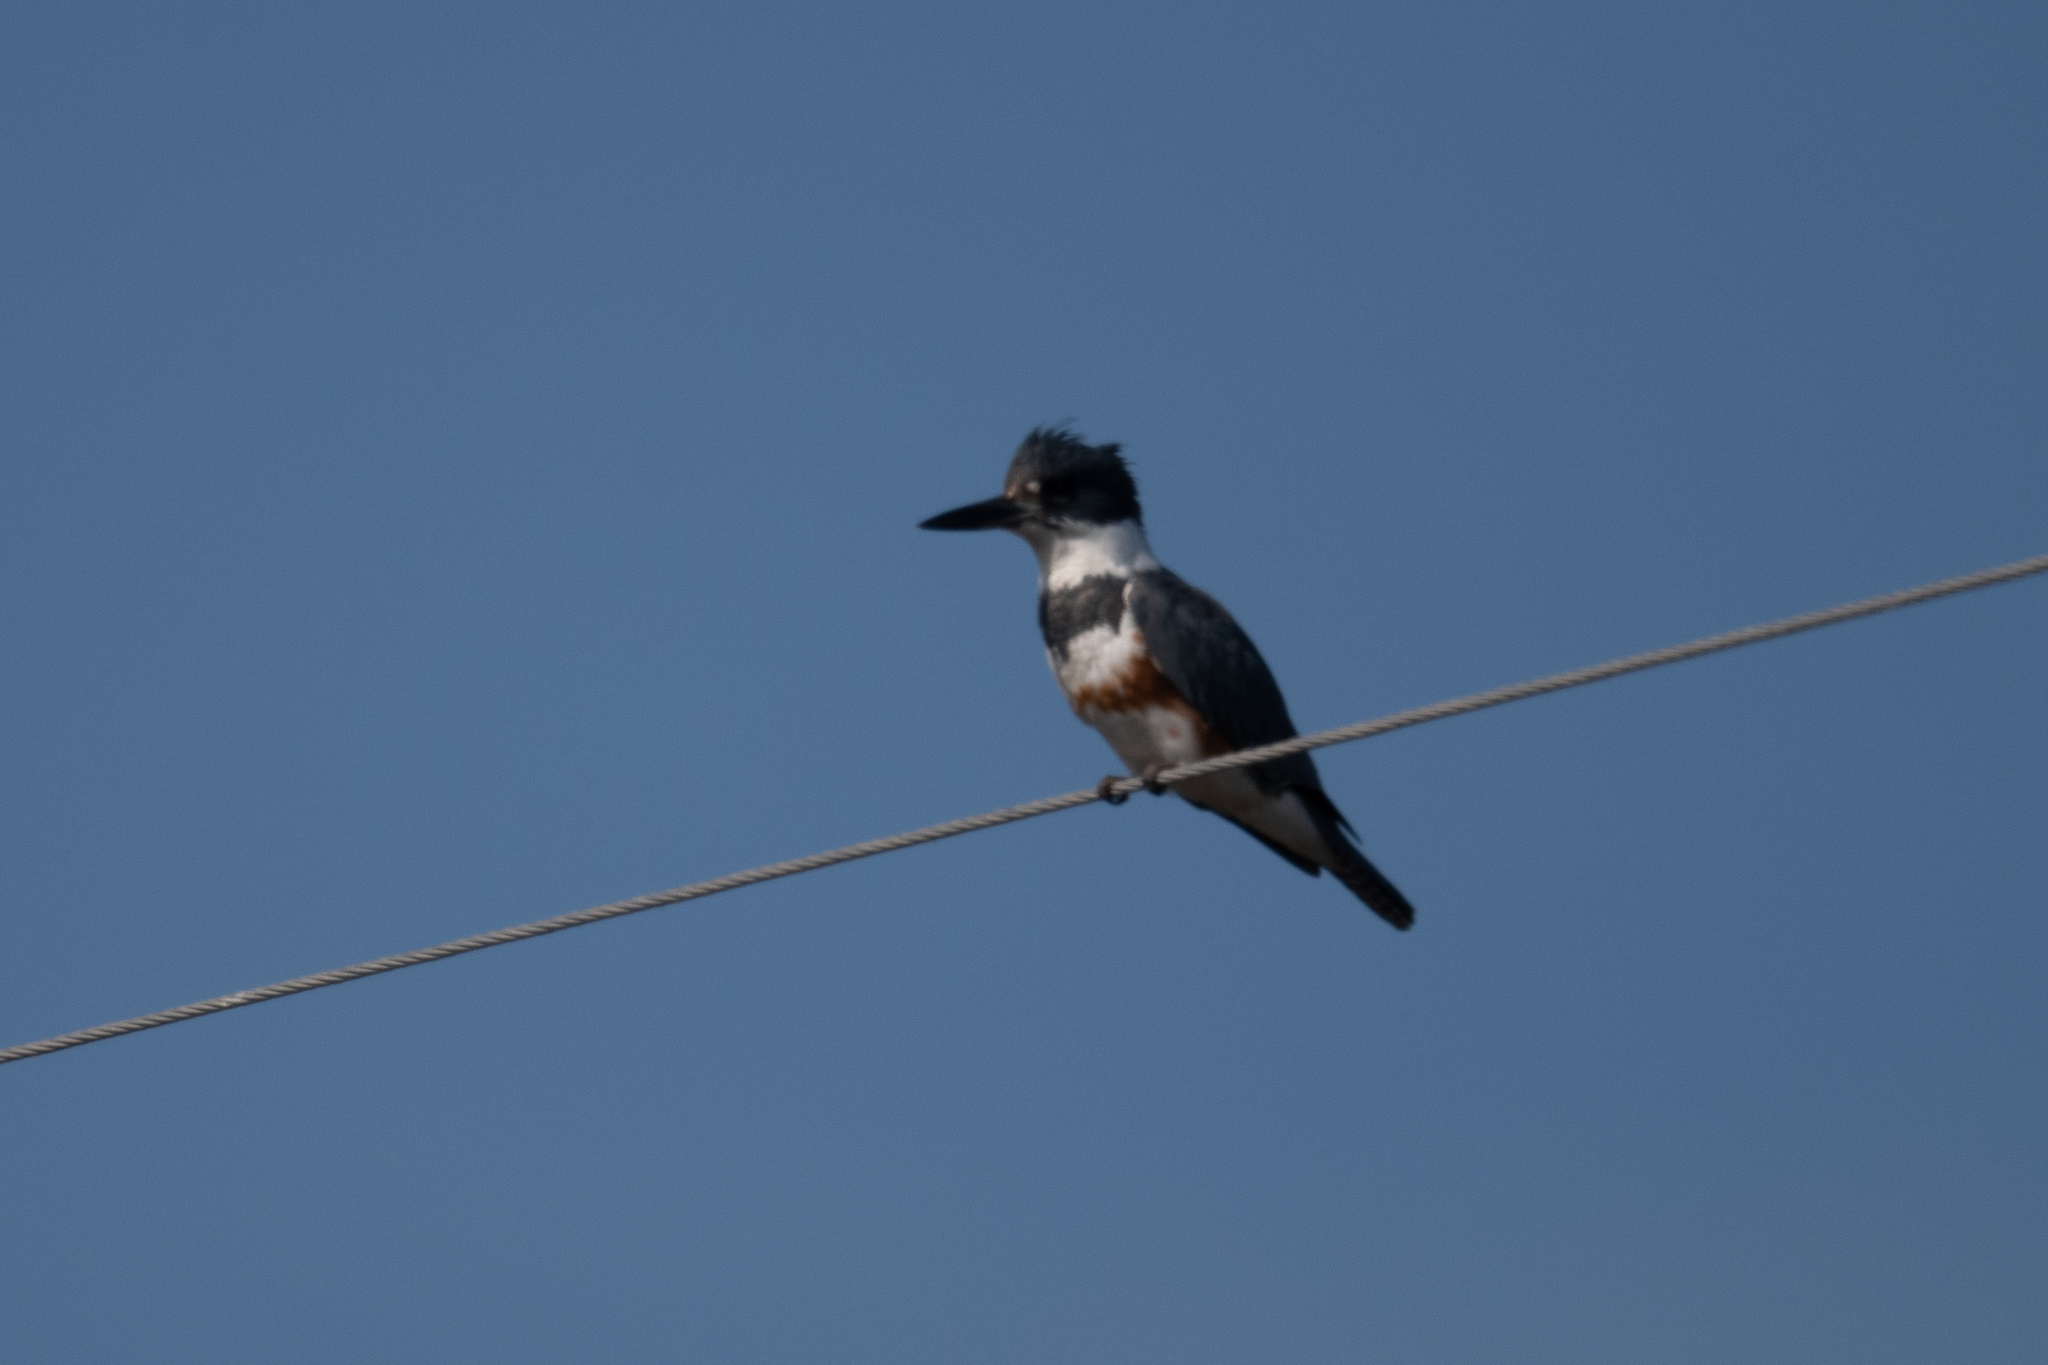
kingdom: Animalia
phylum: Chordata
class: Aves
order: Coraciiformes
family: Alcedinidae
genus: Megaceryle
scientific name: Megaceryle alcyon
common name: Belted kingfisher
